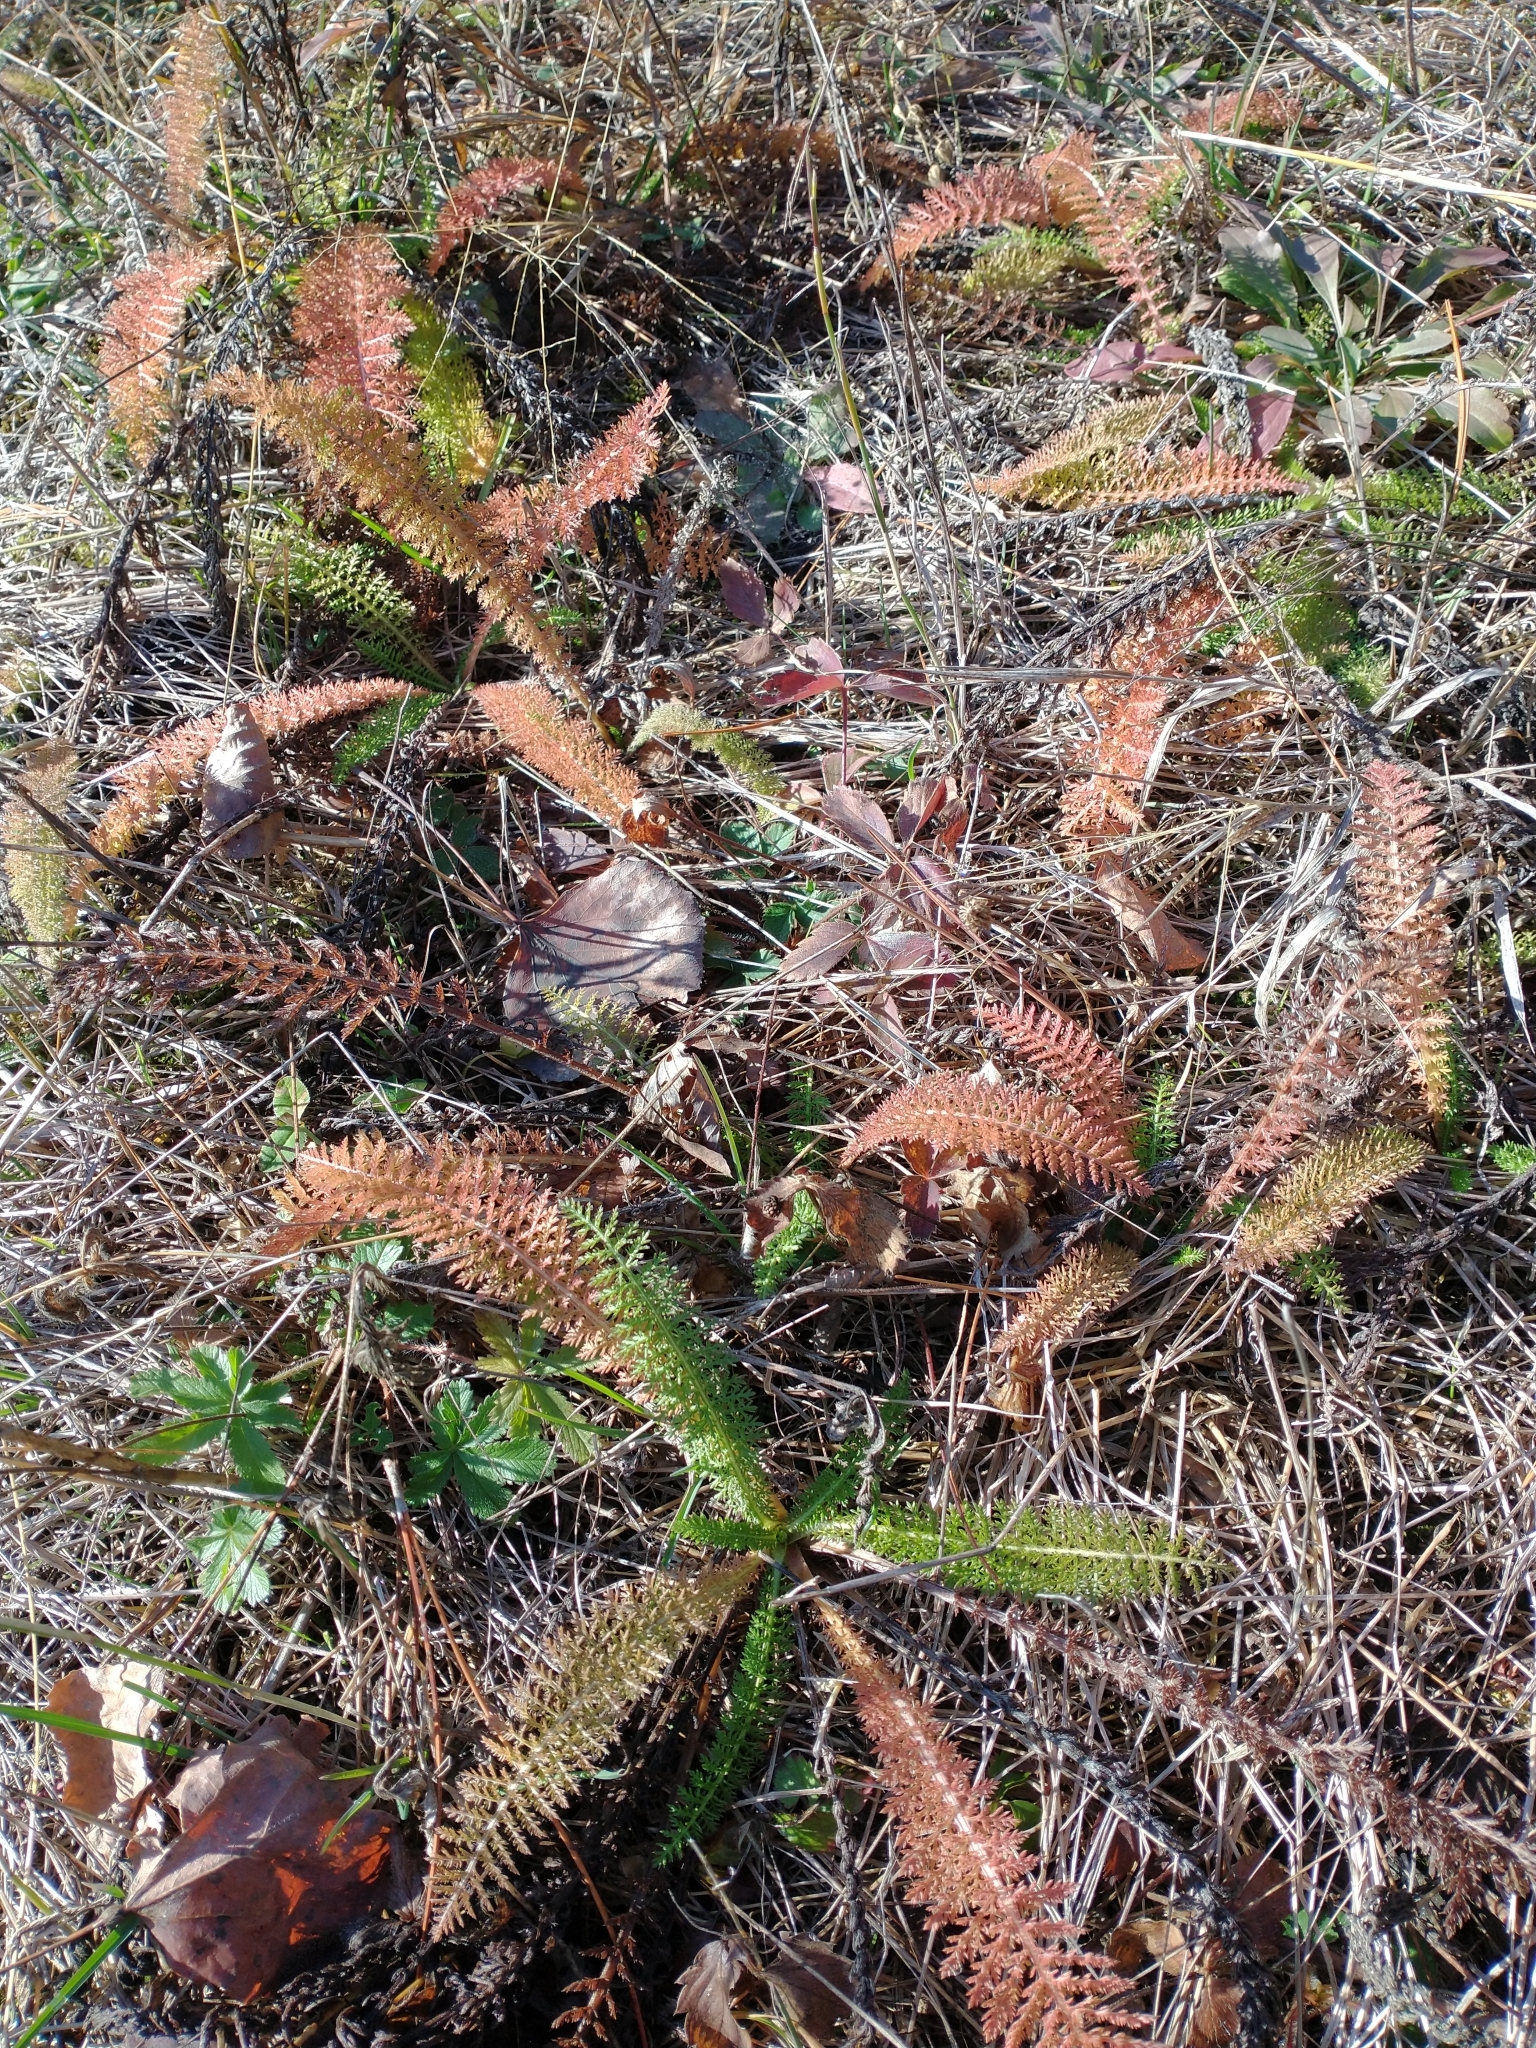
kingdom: Plantae
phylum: Tracheophyta
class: Magnoliopsida
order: Asterales
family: Asteraceae
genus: Achillea
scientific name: Achillea millefolium
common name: Yarrow
